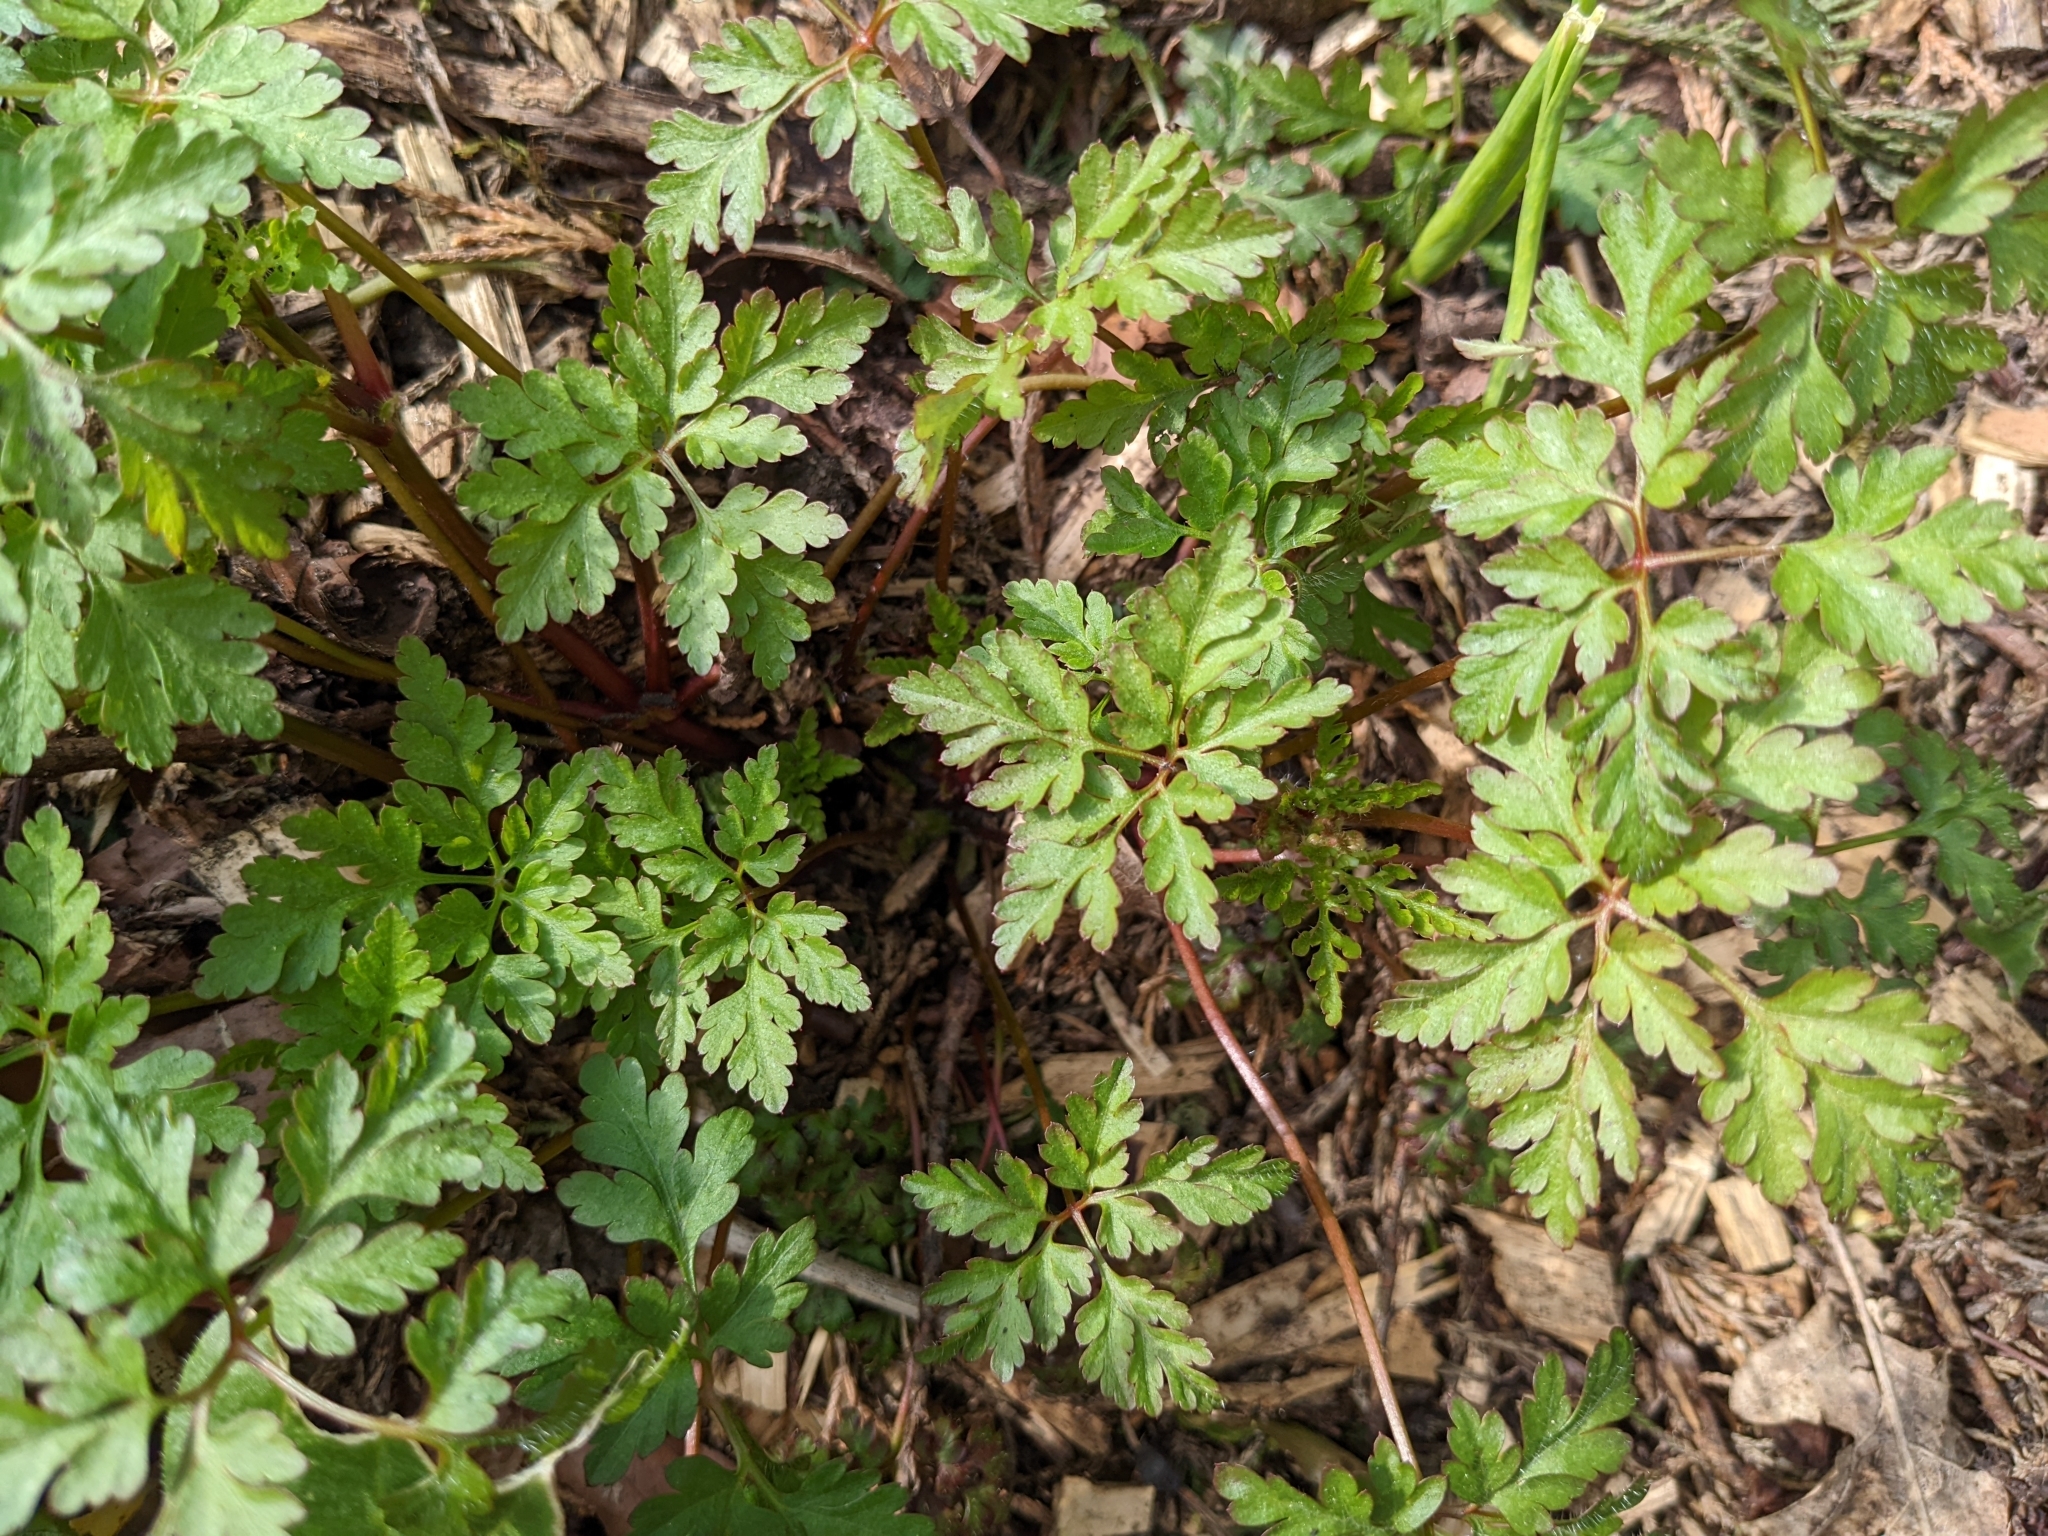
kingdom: Plantae
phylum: Tracheophyta
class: Magnoliopsida
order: Geraniales
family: Geraniaceae
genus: Geranium
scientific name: Geranium robertianum
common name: Herb-robert
